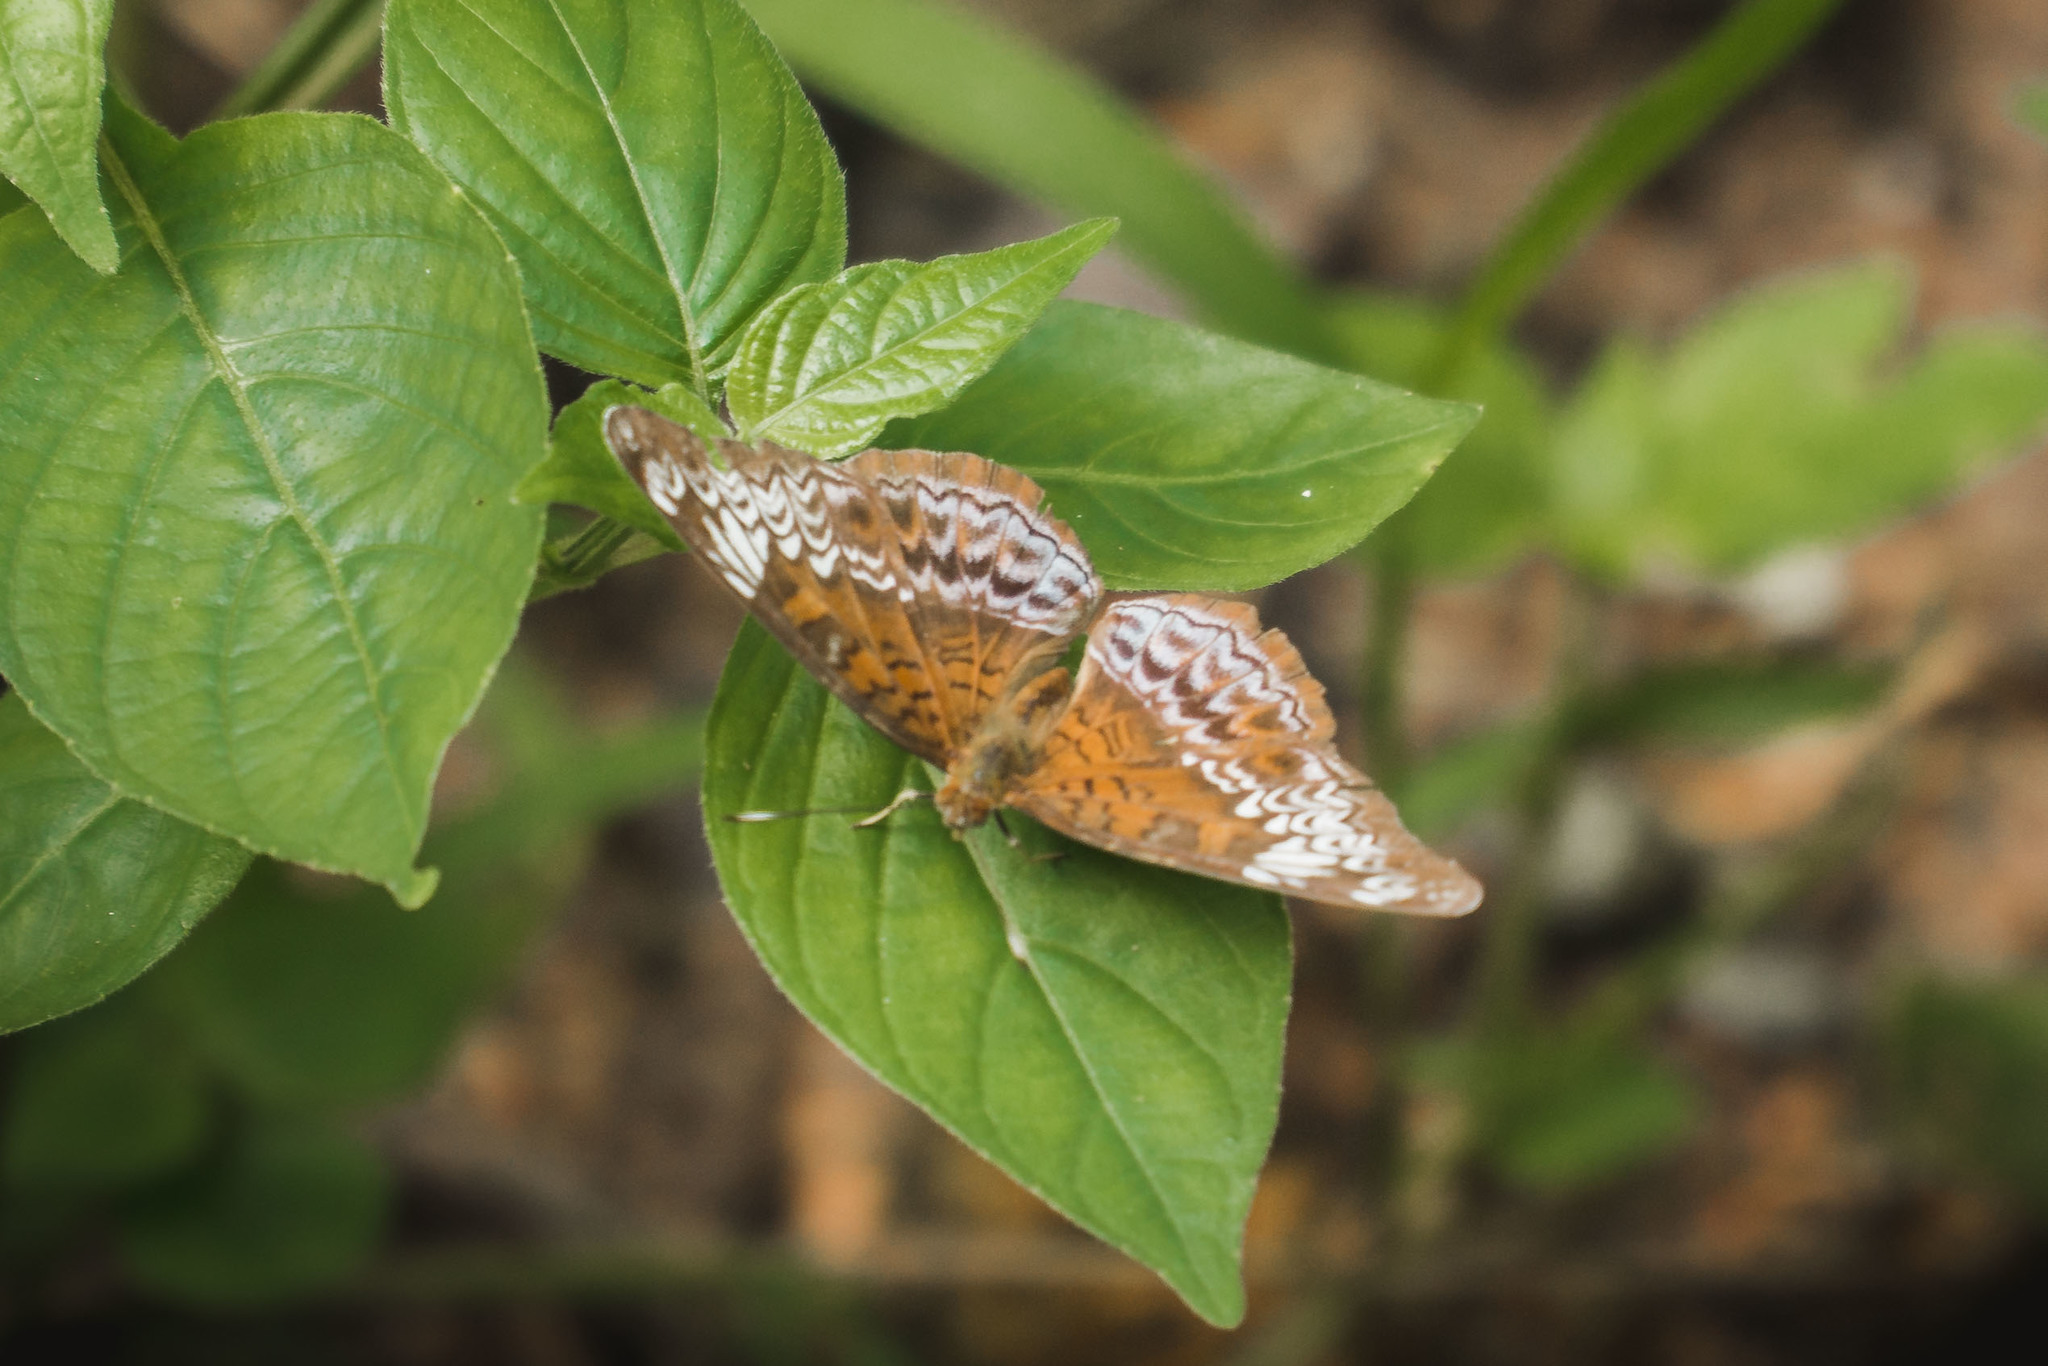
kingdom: Animalia
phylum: Arthropoda
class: Insecta
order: Lepidoptera
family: Nymphalidae
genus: Lebadea
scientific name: Lebadea martha
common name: Knight
